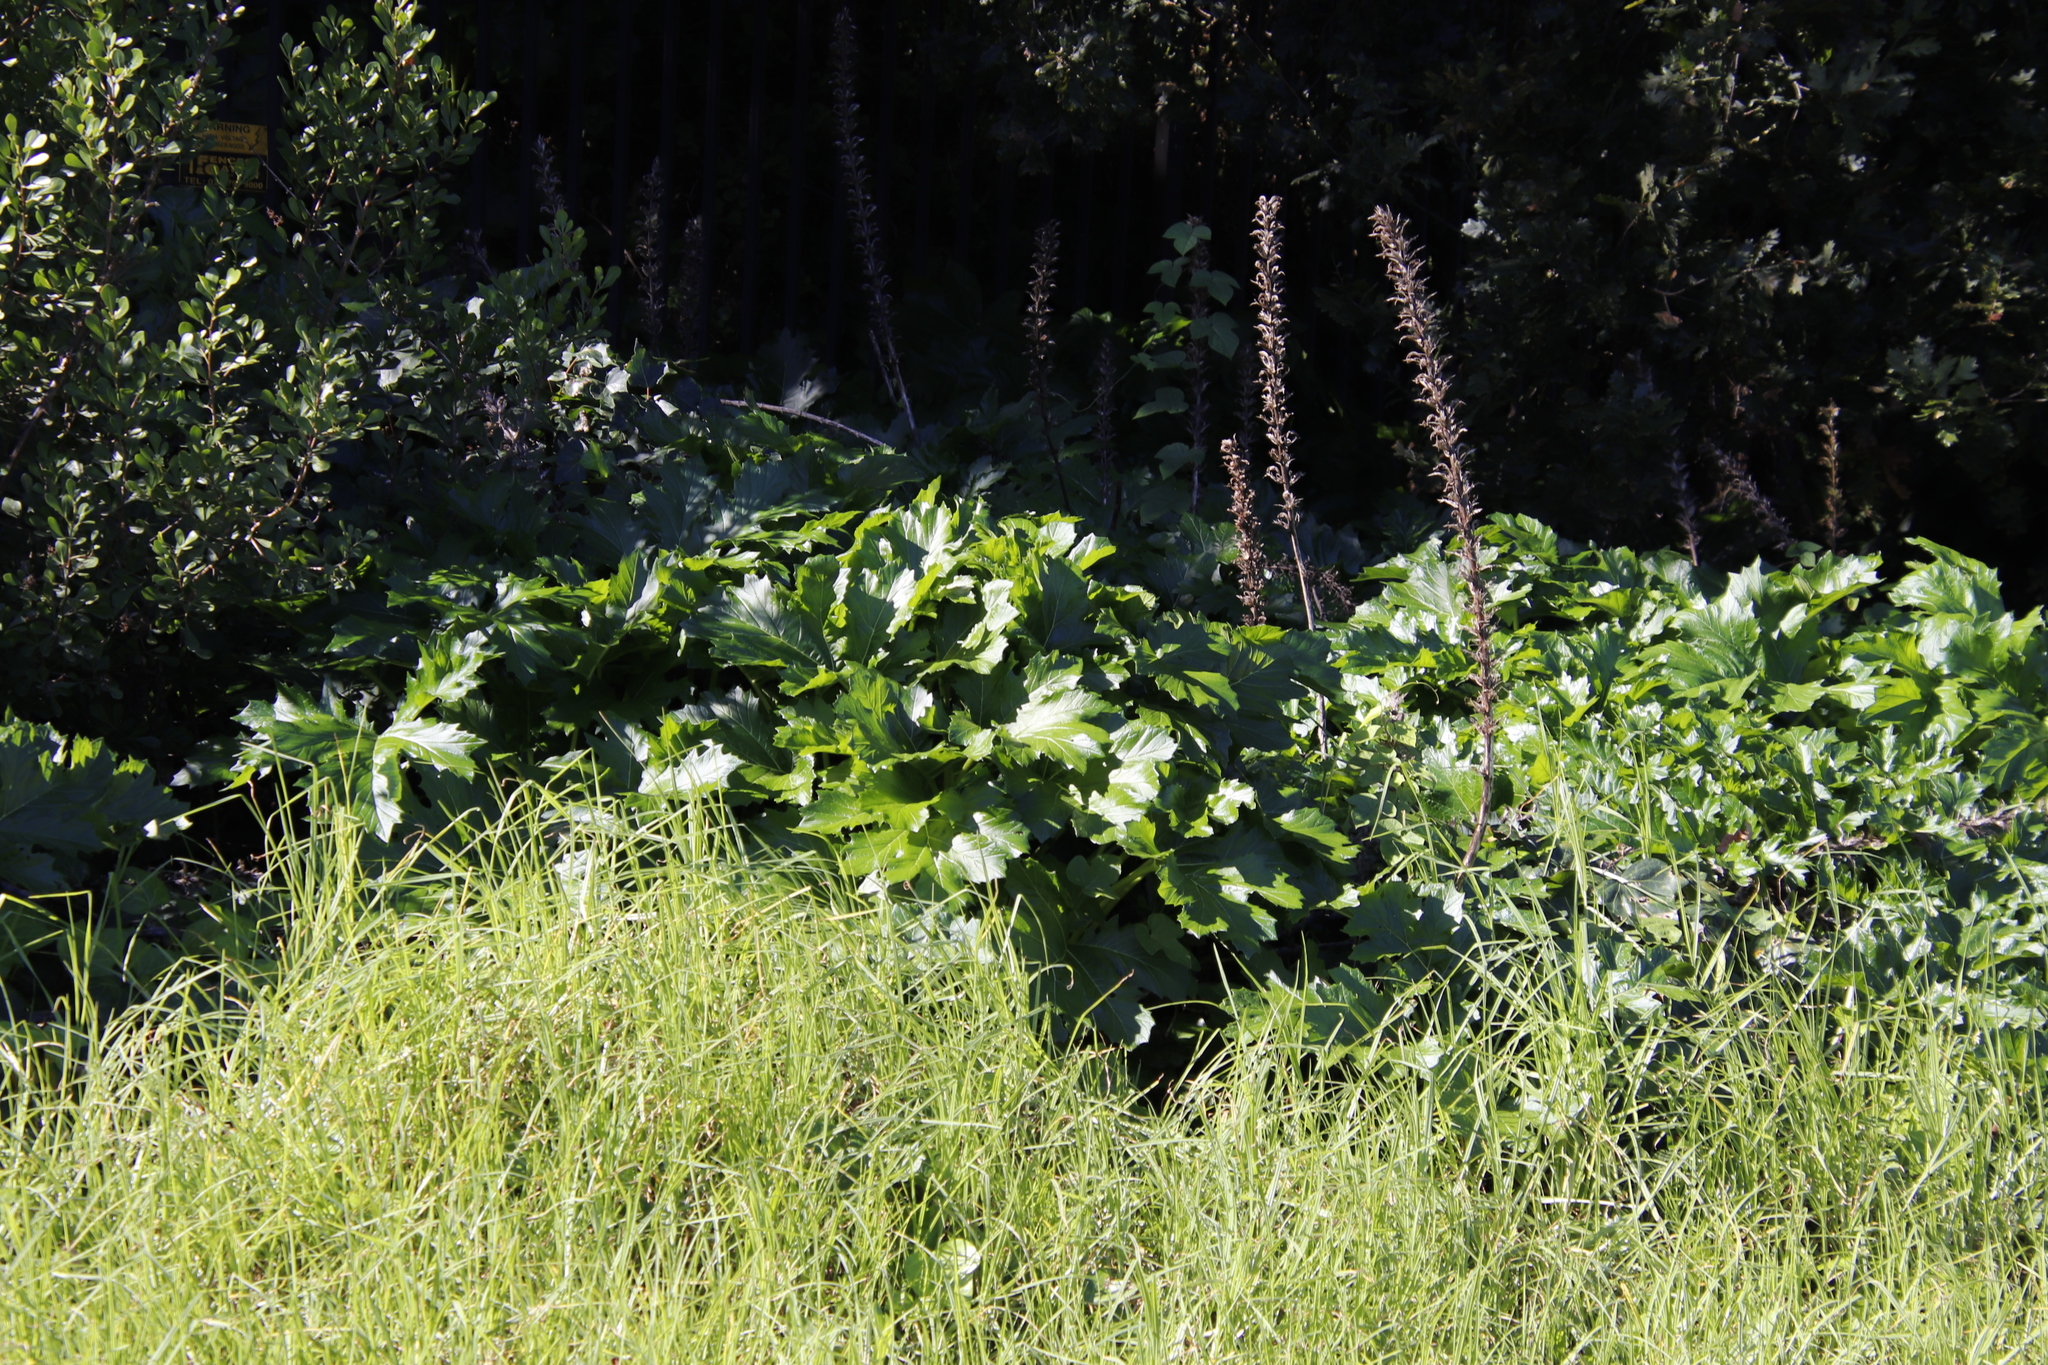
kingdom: Plantae
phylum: Tracheophyta
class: Magnoliopsida
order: Lamiales
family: Acanthaceae
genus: Acanthus
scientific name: Acanthus mollis
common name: Bear's-breech
